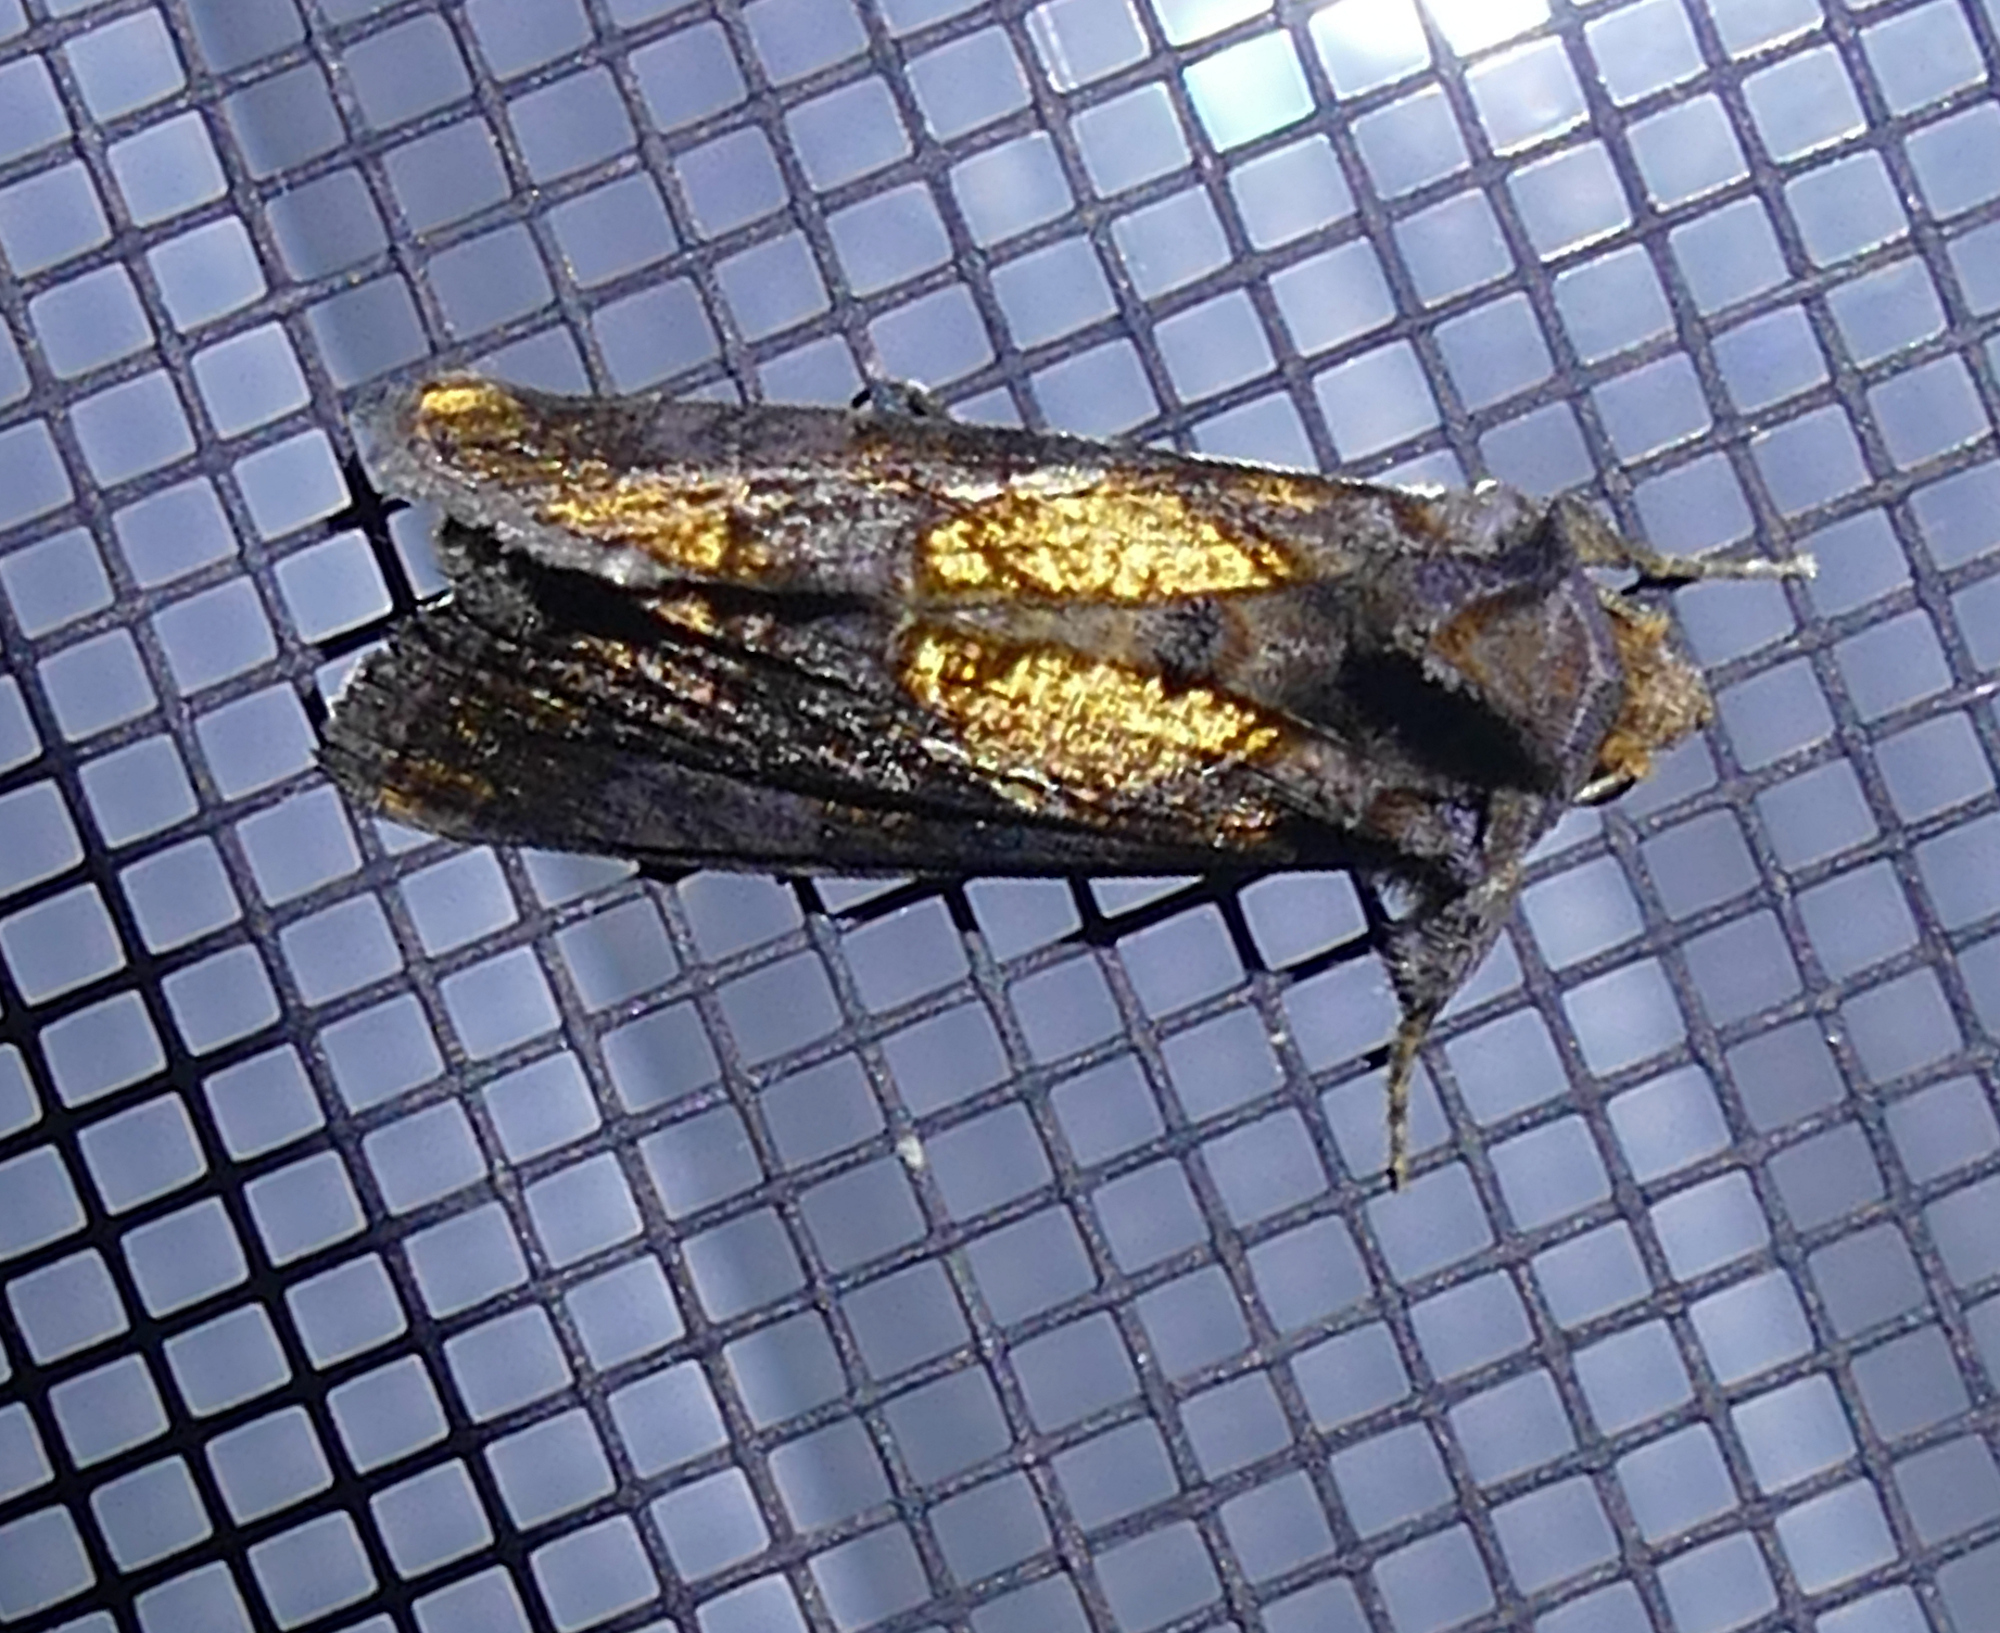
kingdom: Animalia
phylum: Arthropoda
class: Insecta
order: Lepidoptera
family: Noctuidae
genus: Argyrogramma
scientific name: Argyrogramma verruca
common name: Golden looper moth
